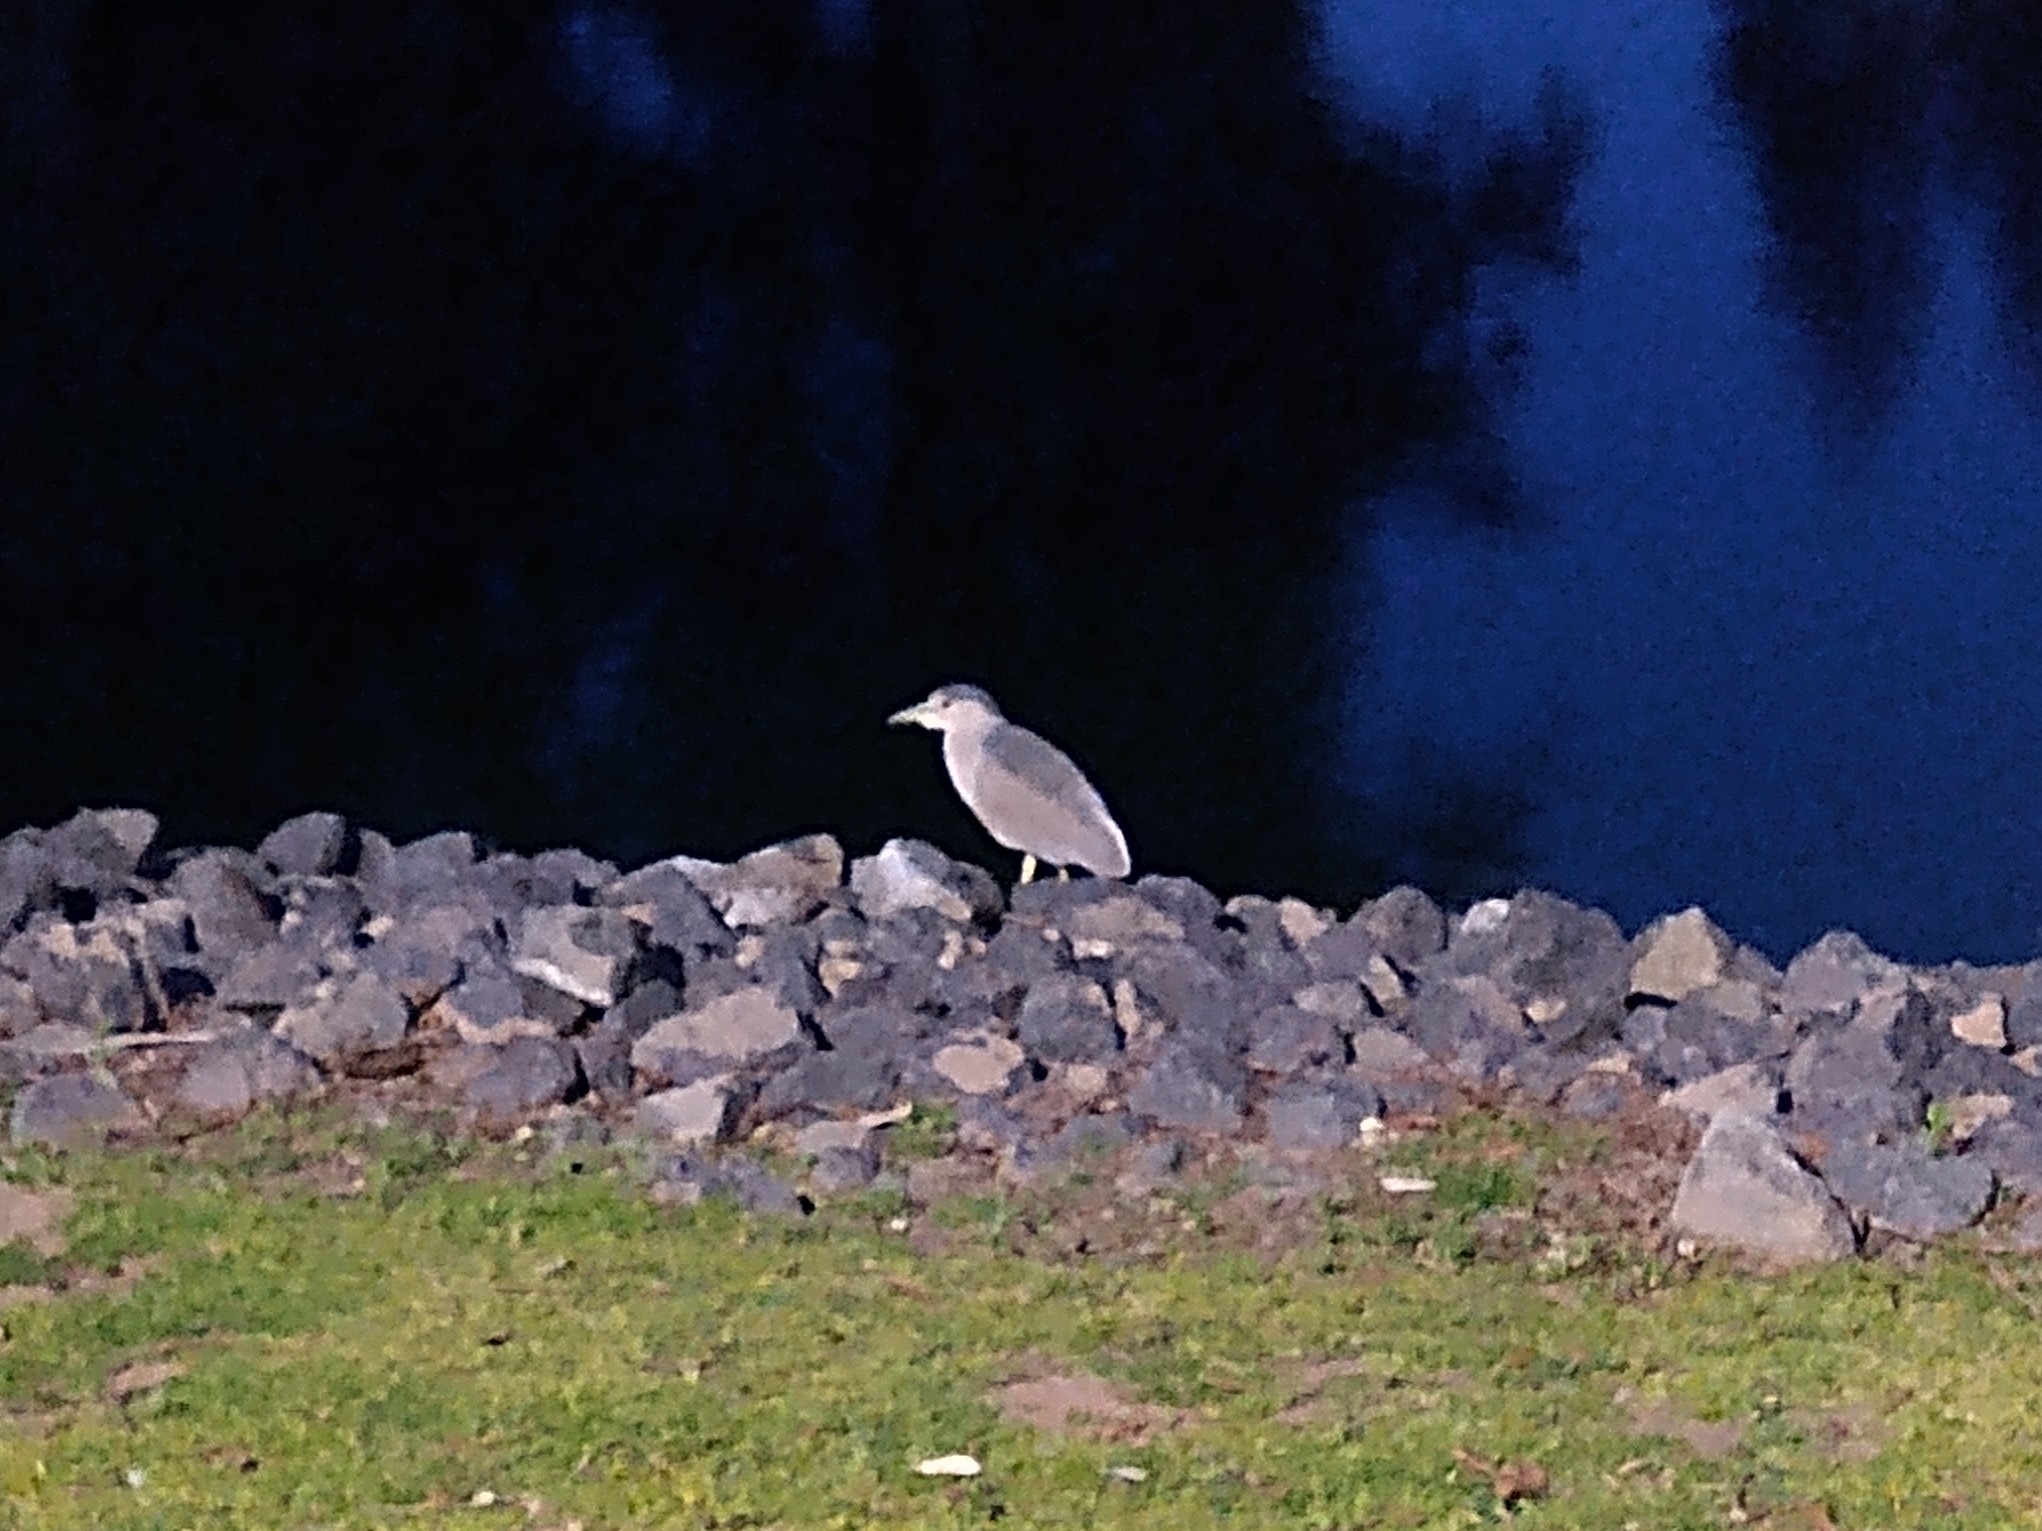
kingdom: Animalia
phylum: Chordata
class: Aves
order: Pelecaniformes
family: Ardeidae
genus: Nycticorax
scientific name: Nycticorax nycticorax
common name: Black-crowned night heron
